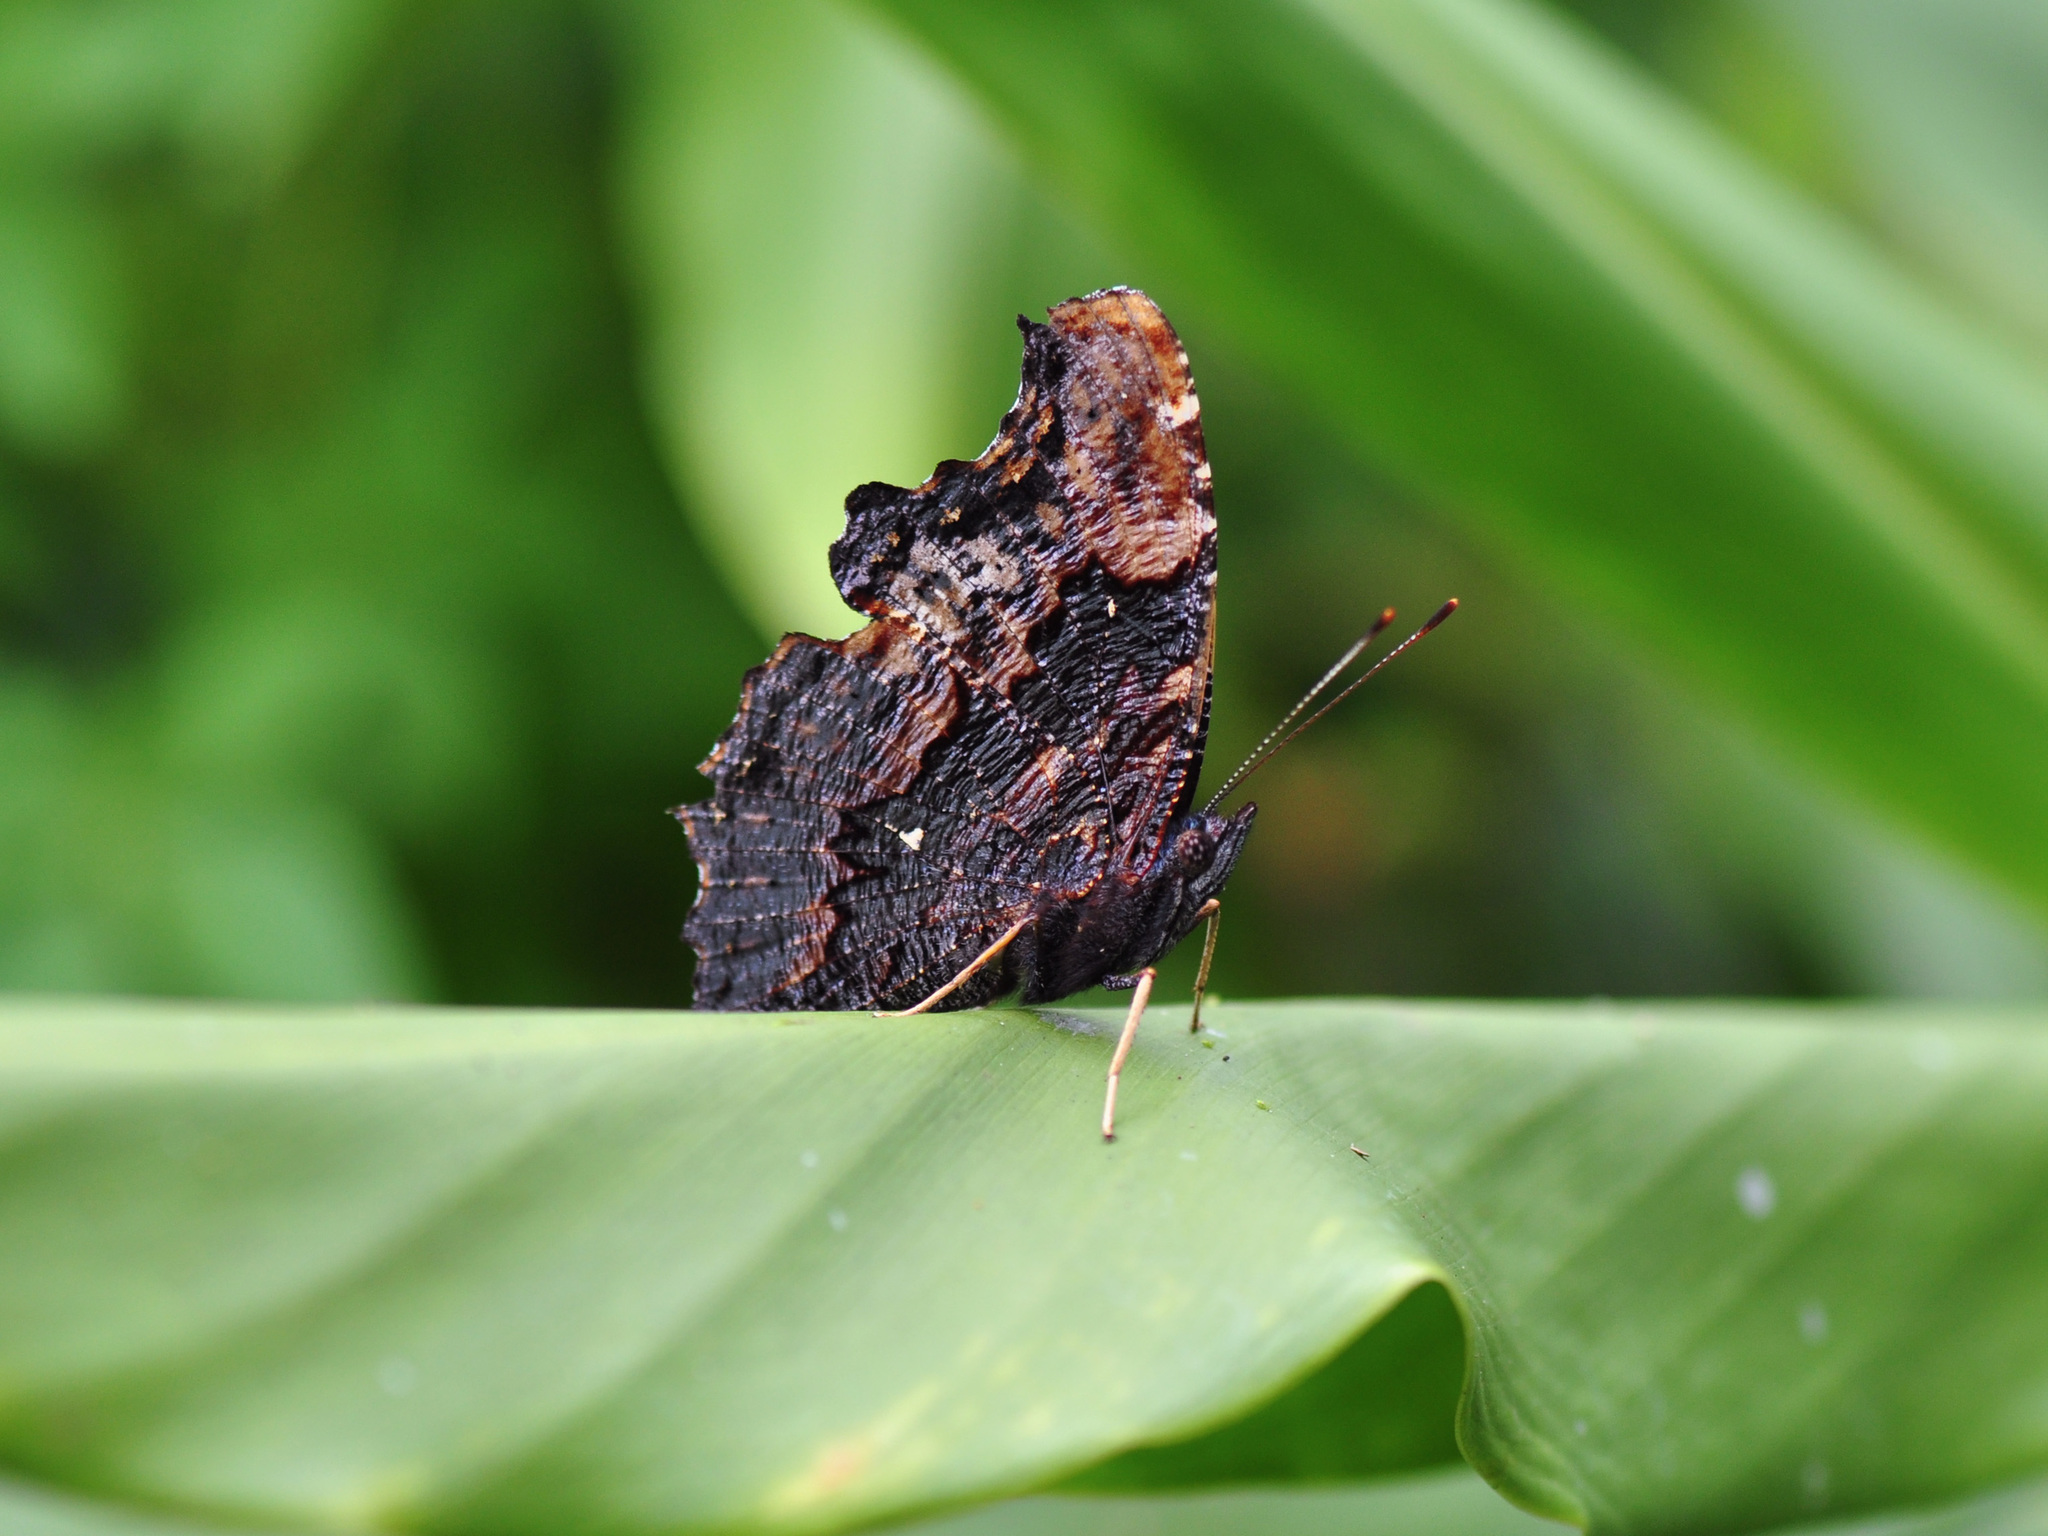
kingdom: Animalia
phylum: Arthropoda
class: Insecta
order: Lepidoptera
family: Nymphalidae
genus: Vanessa
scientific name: Vanessa Kaniska canace
